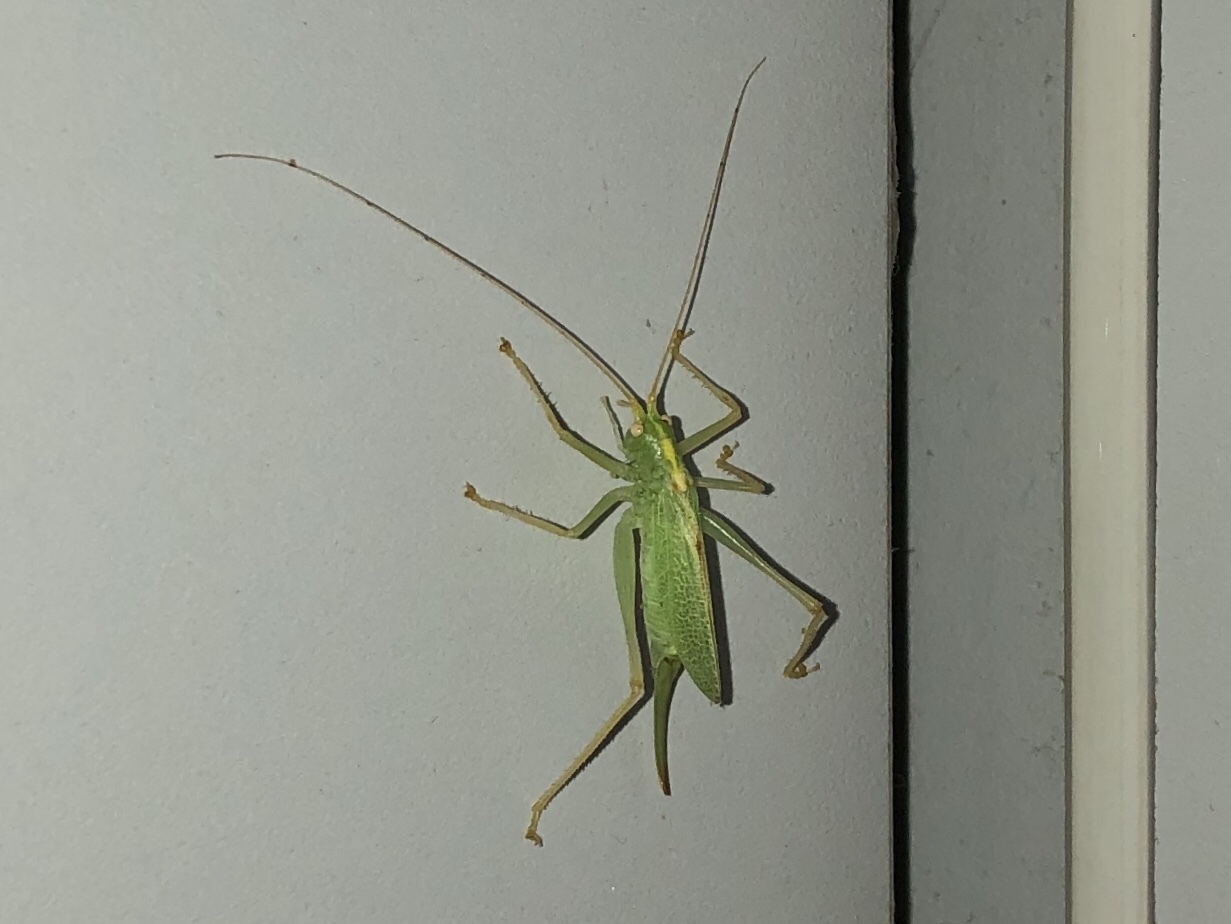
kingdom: Animalia
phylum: Arthropoda
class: Insecta
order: Orthoptera
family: Tettigoniidae
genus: Meconema
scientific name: Meconema thalassinum
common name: Oak bush-cricket
